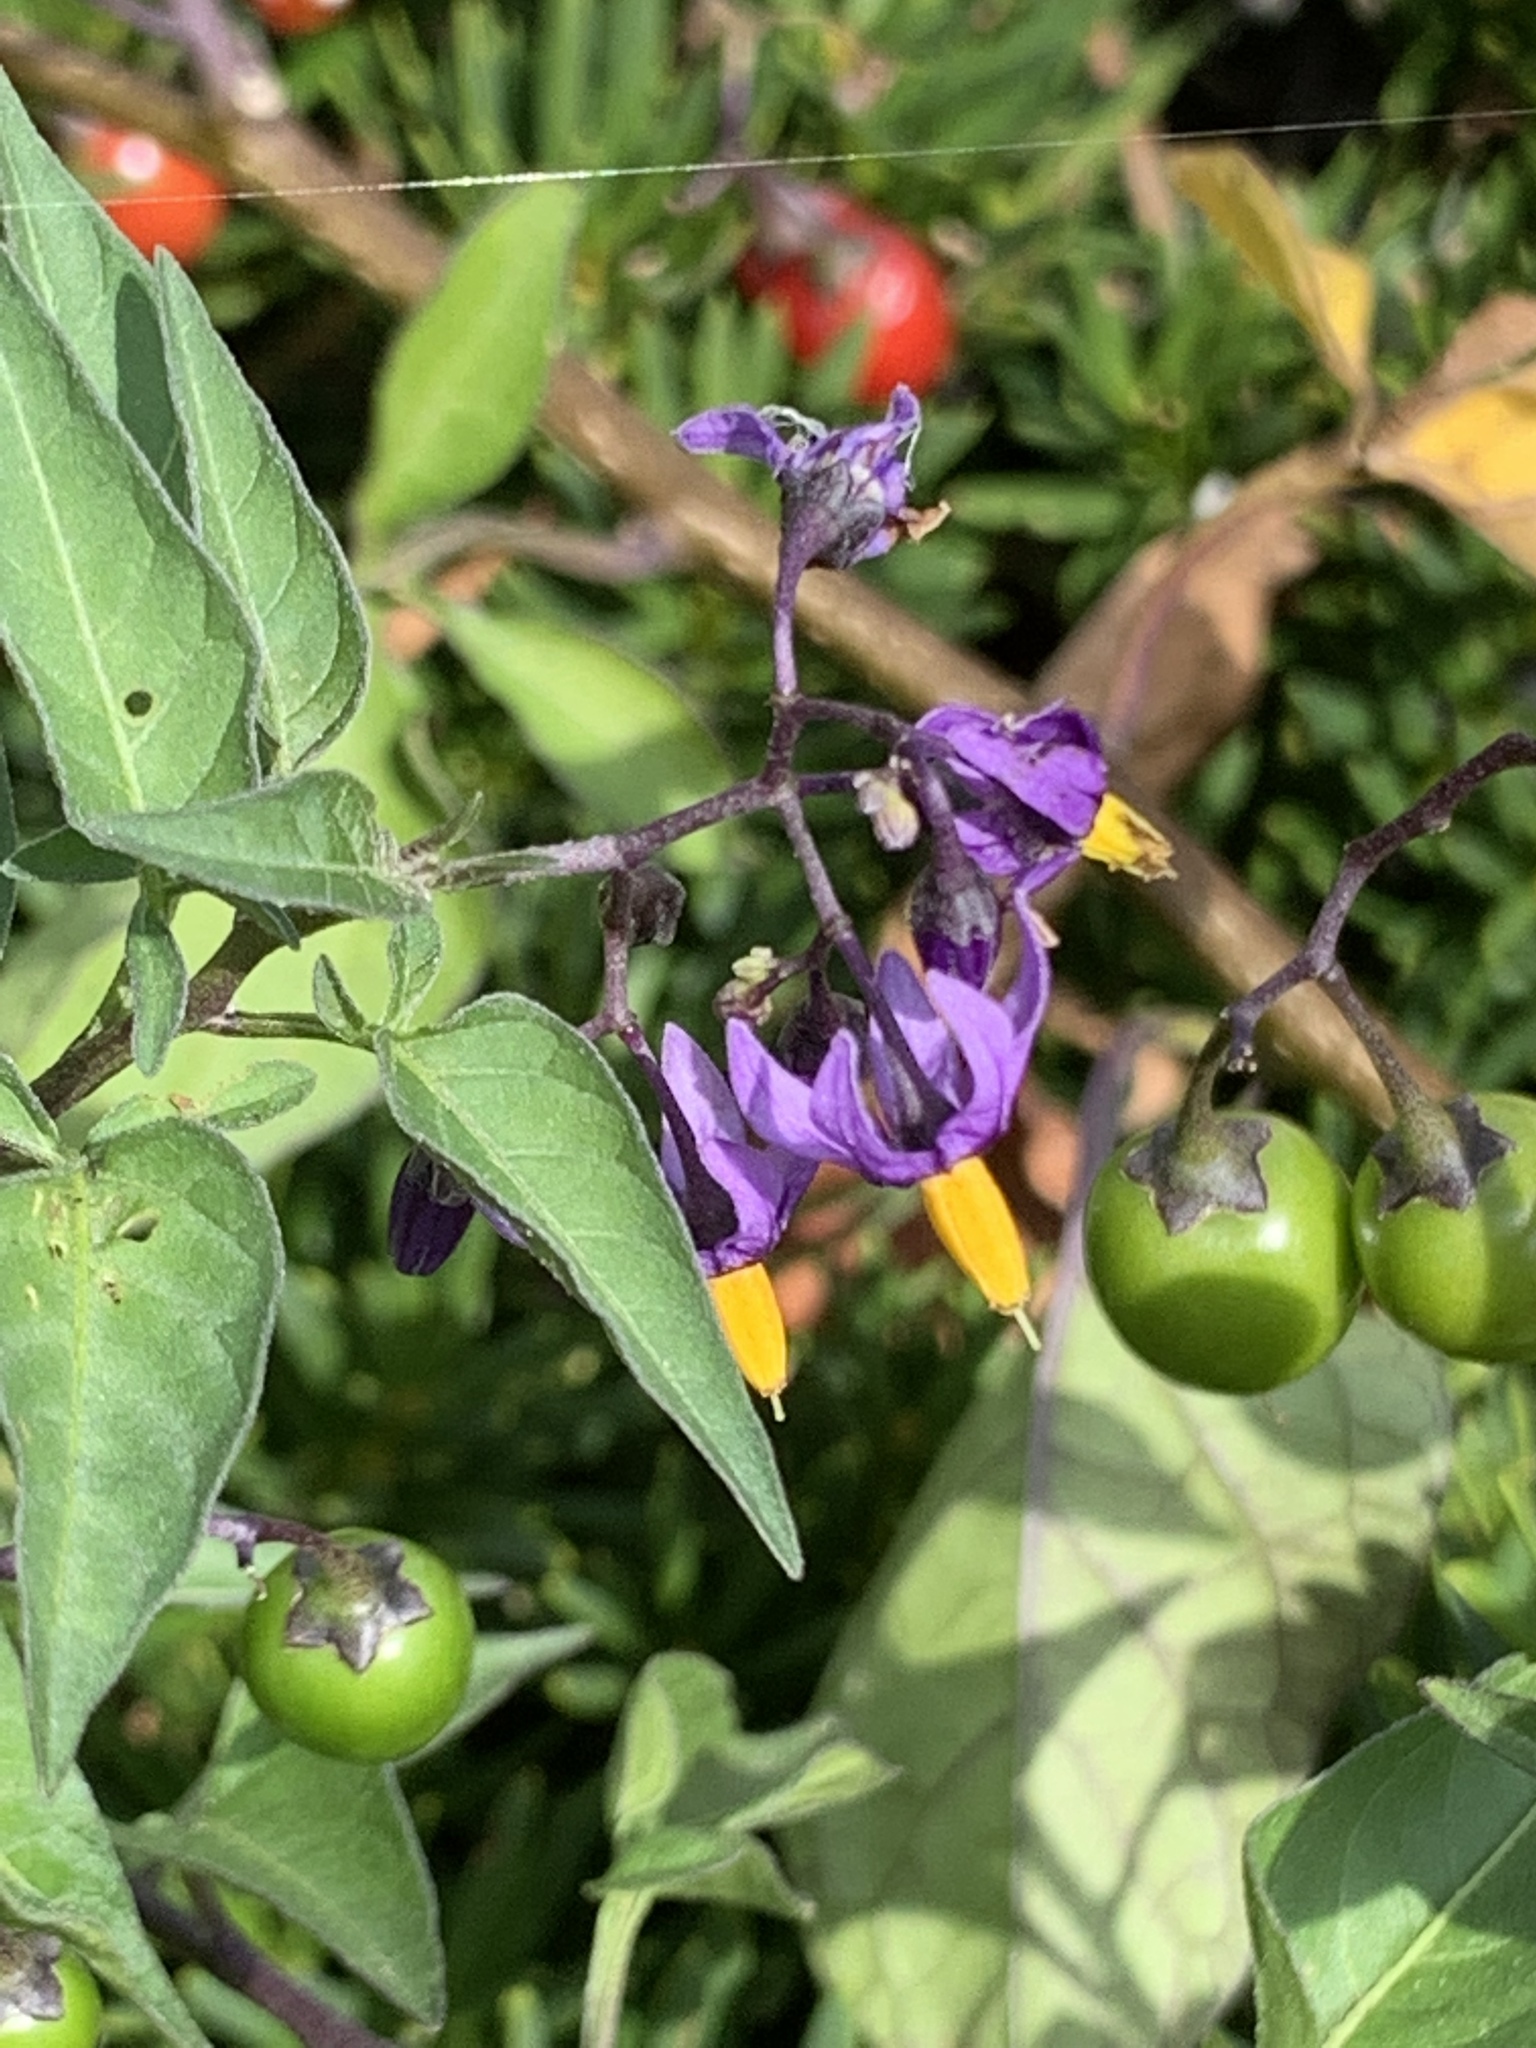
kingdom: Plantae
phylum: Tracheophyta
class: Magnoliopsida
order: Solanales
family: Solanaceae
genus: Solanum
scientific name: Solanum dulcamara
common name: Climbing nightshade
